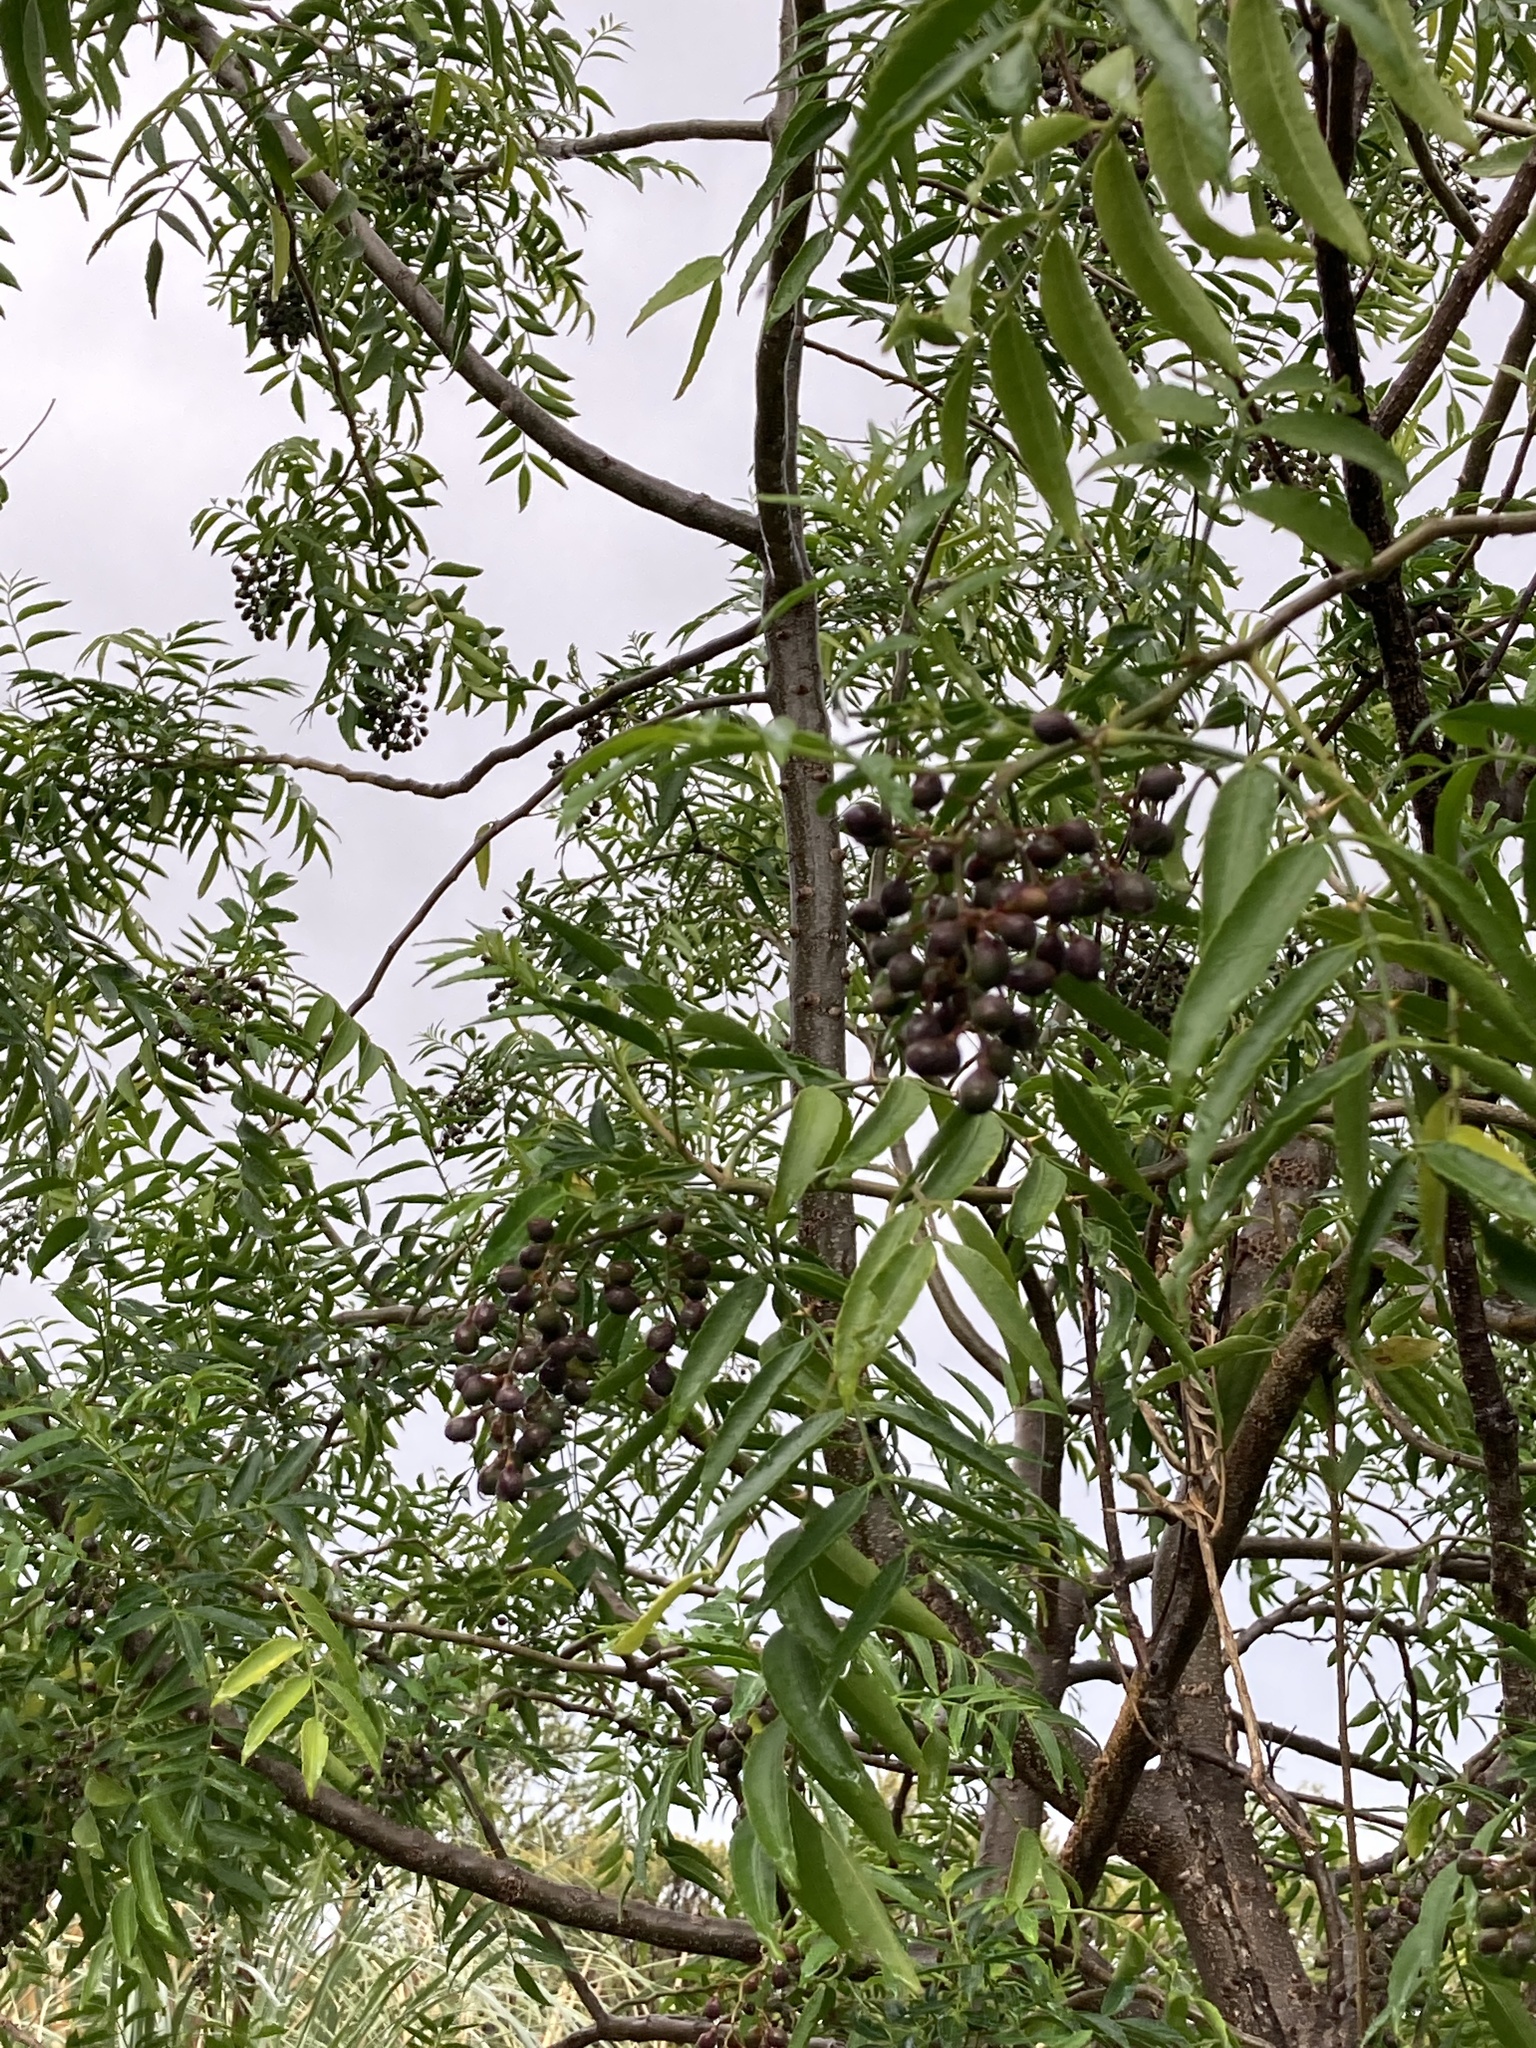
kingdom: Plantae
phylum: Tracheophyta
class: Magnoliopsida
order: Sapindales
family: Rutaceae
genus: Zanthoxylum
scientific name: Zanthoxylum coco
